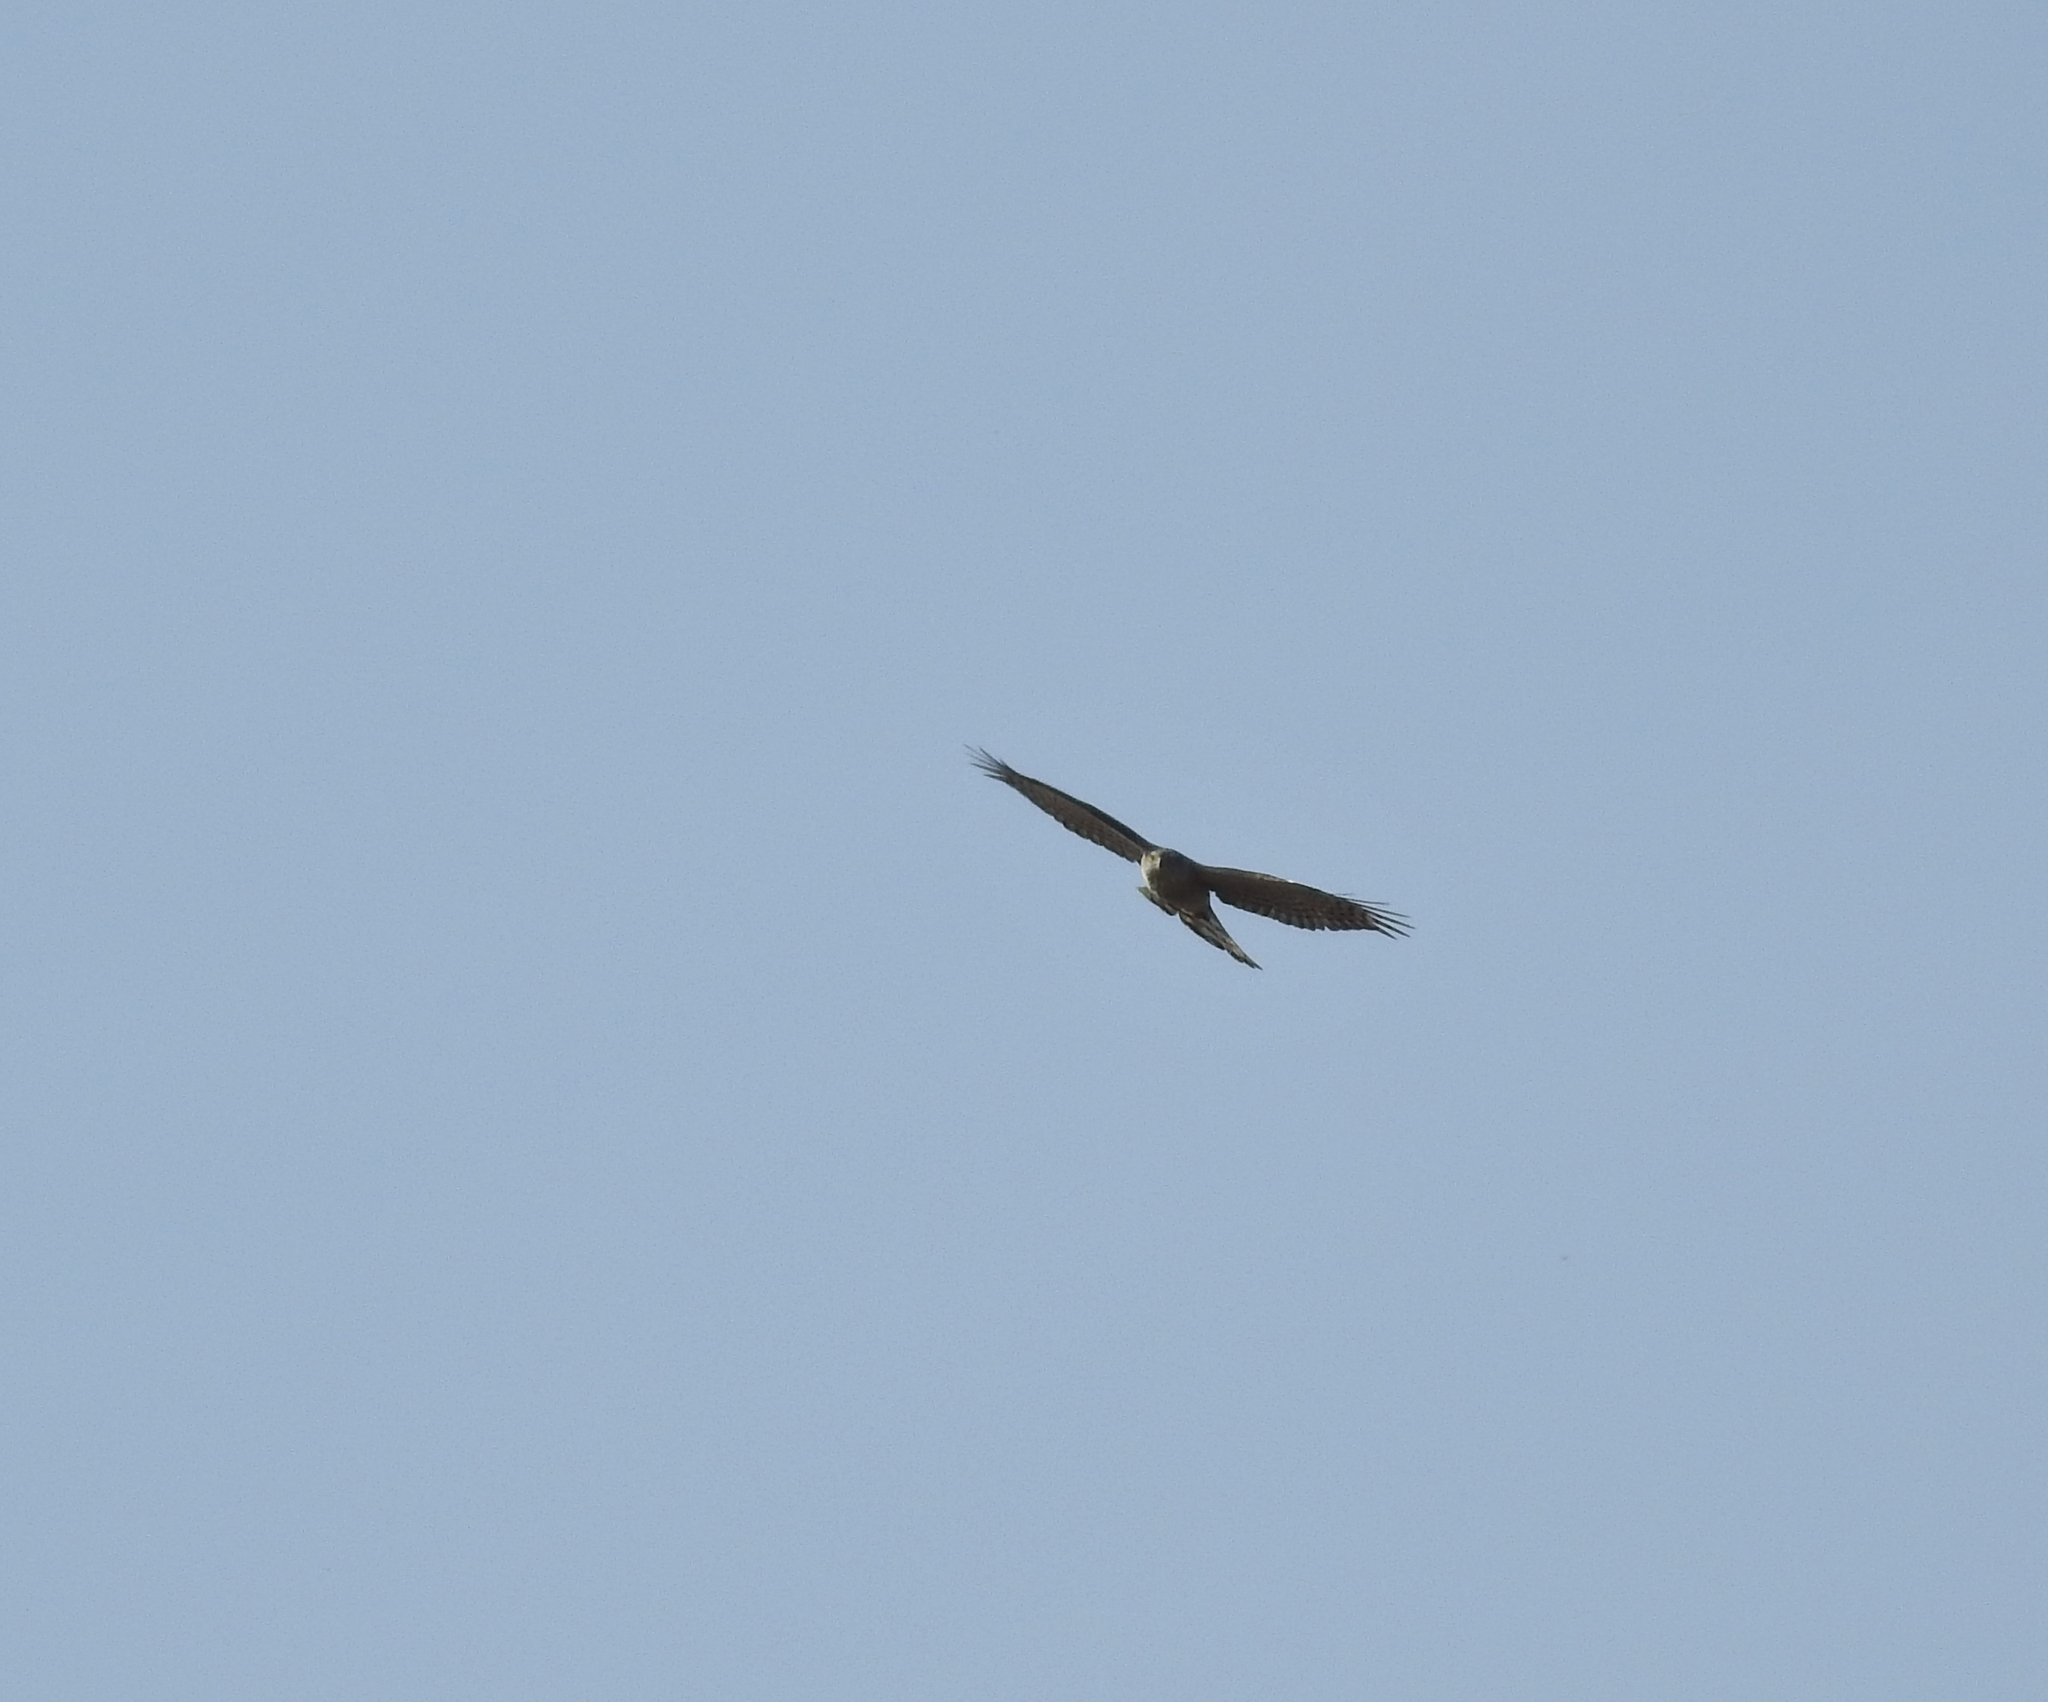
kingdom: Animalia
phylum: Chordata
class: Aves
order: Accipitriformes
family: Accipitridae
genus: Accipiter
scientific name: Accipiter nisus
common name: Eurasian sparrowhawk
